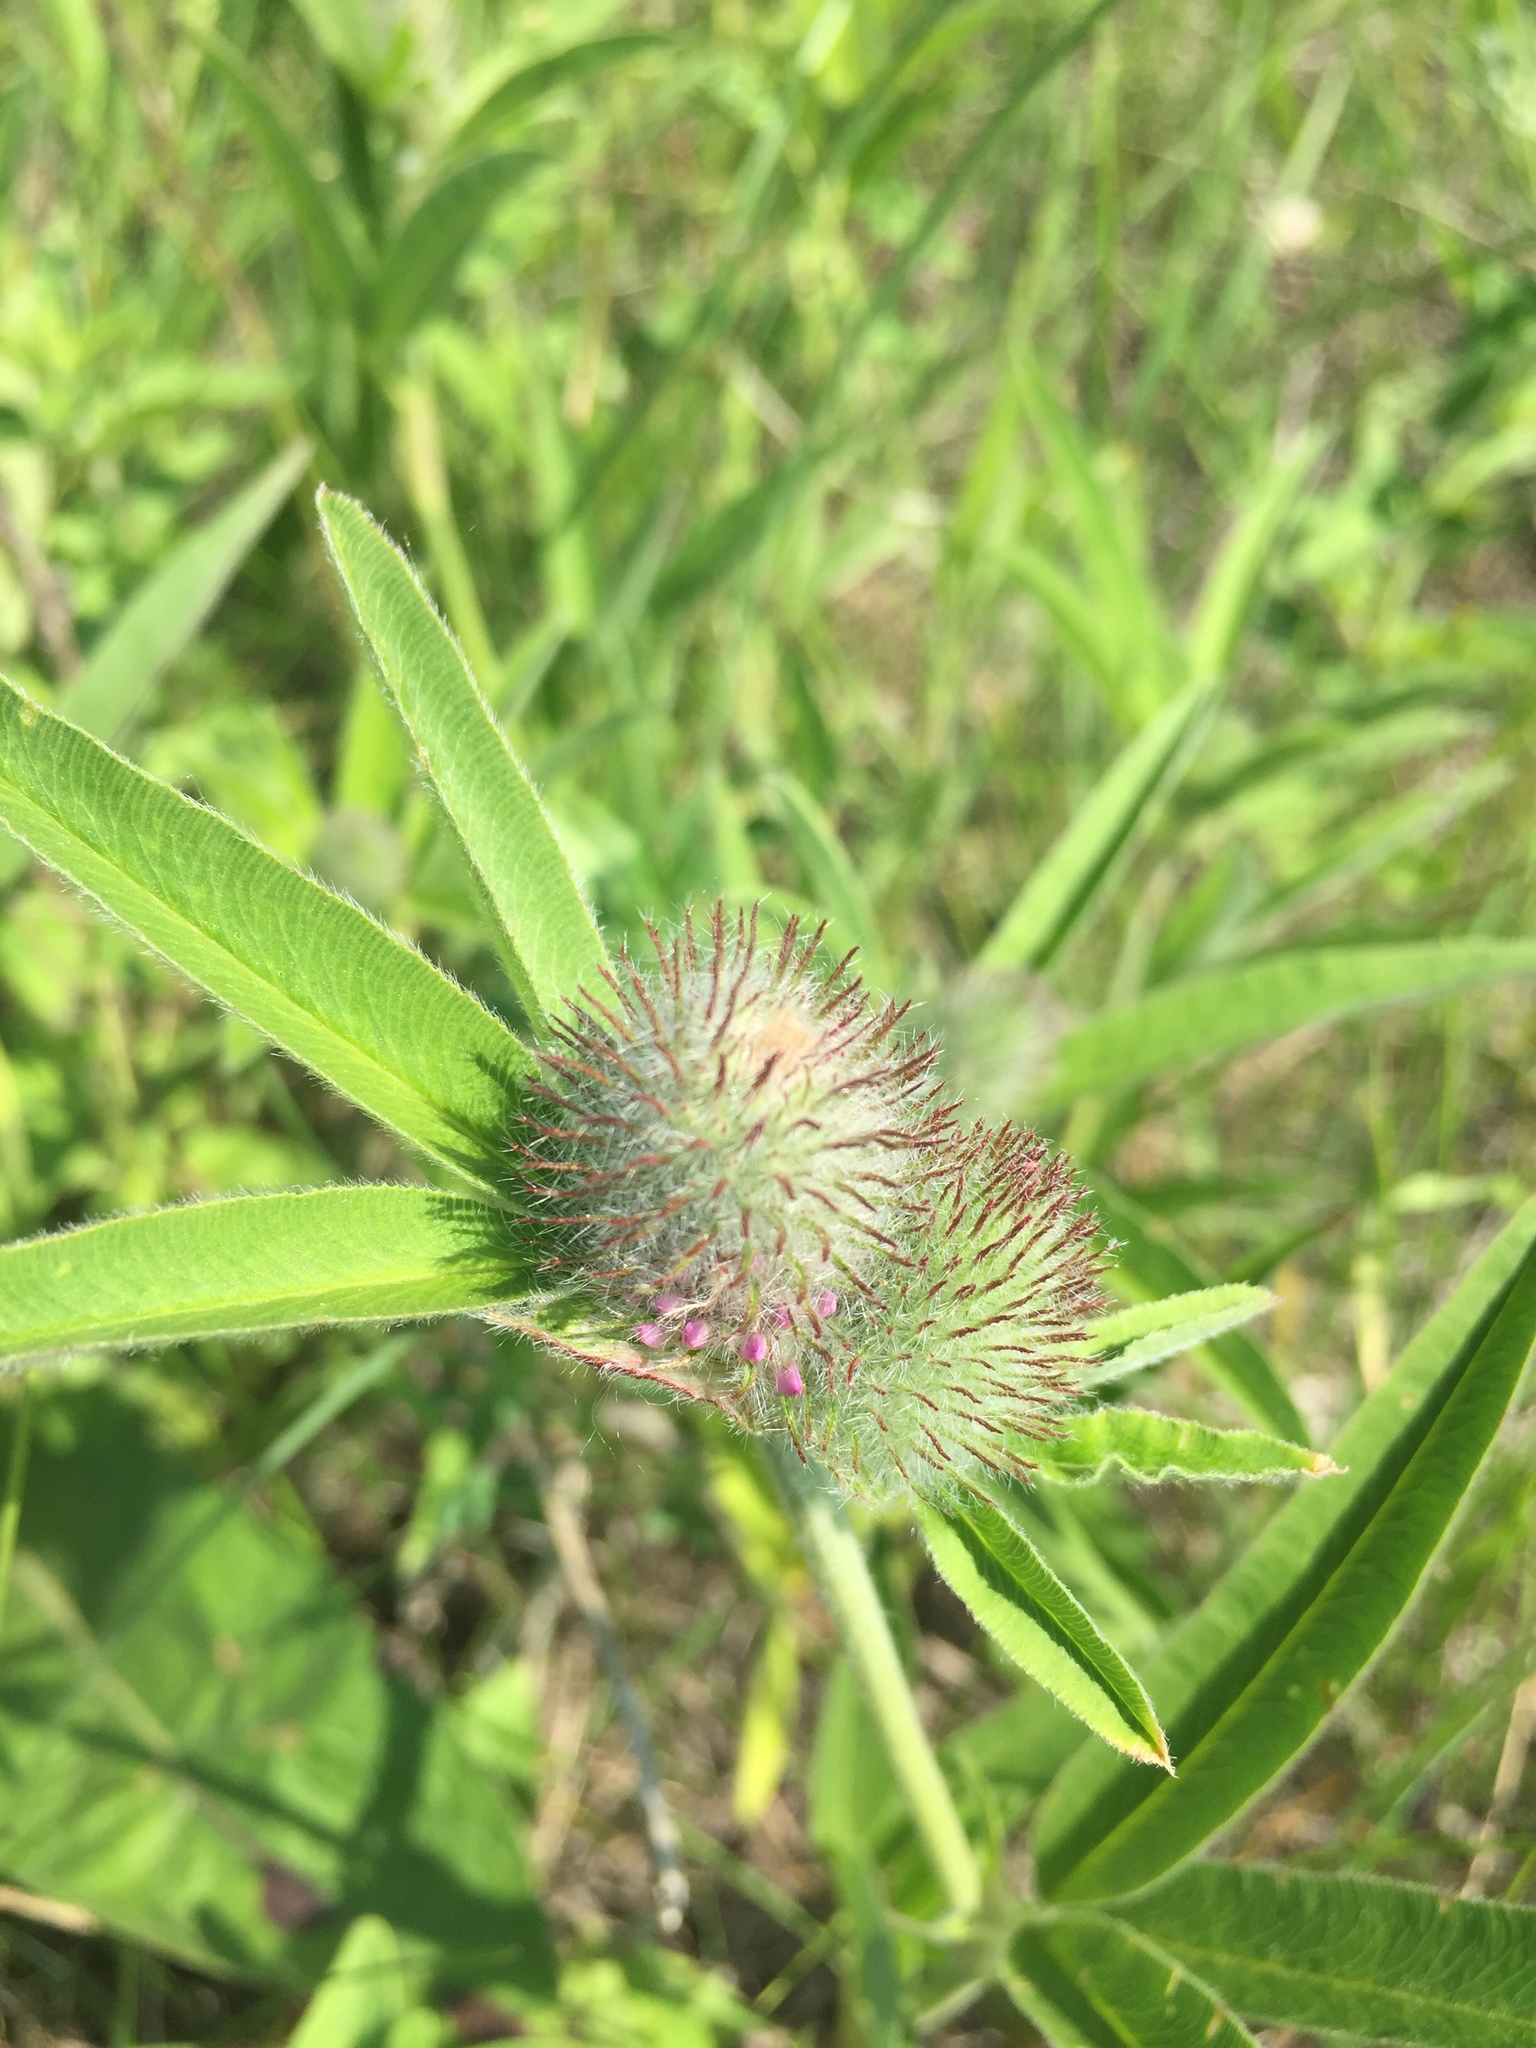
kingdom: Plantae
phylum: Tracheophyta
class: Magnoliopsida
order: Fabales
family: Fabaceae
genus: Trifolium
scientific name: Trifolium alpestre
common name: Owl-head clover
